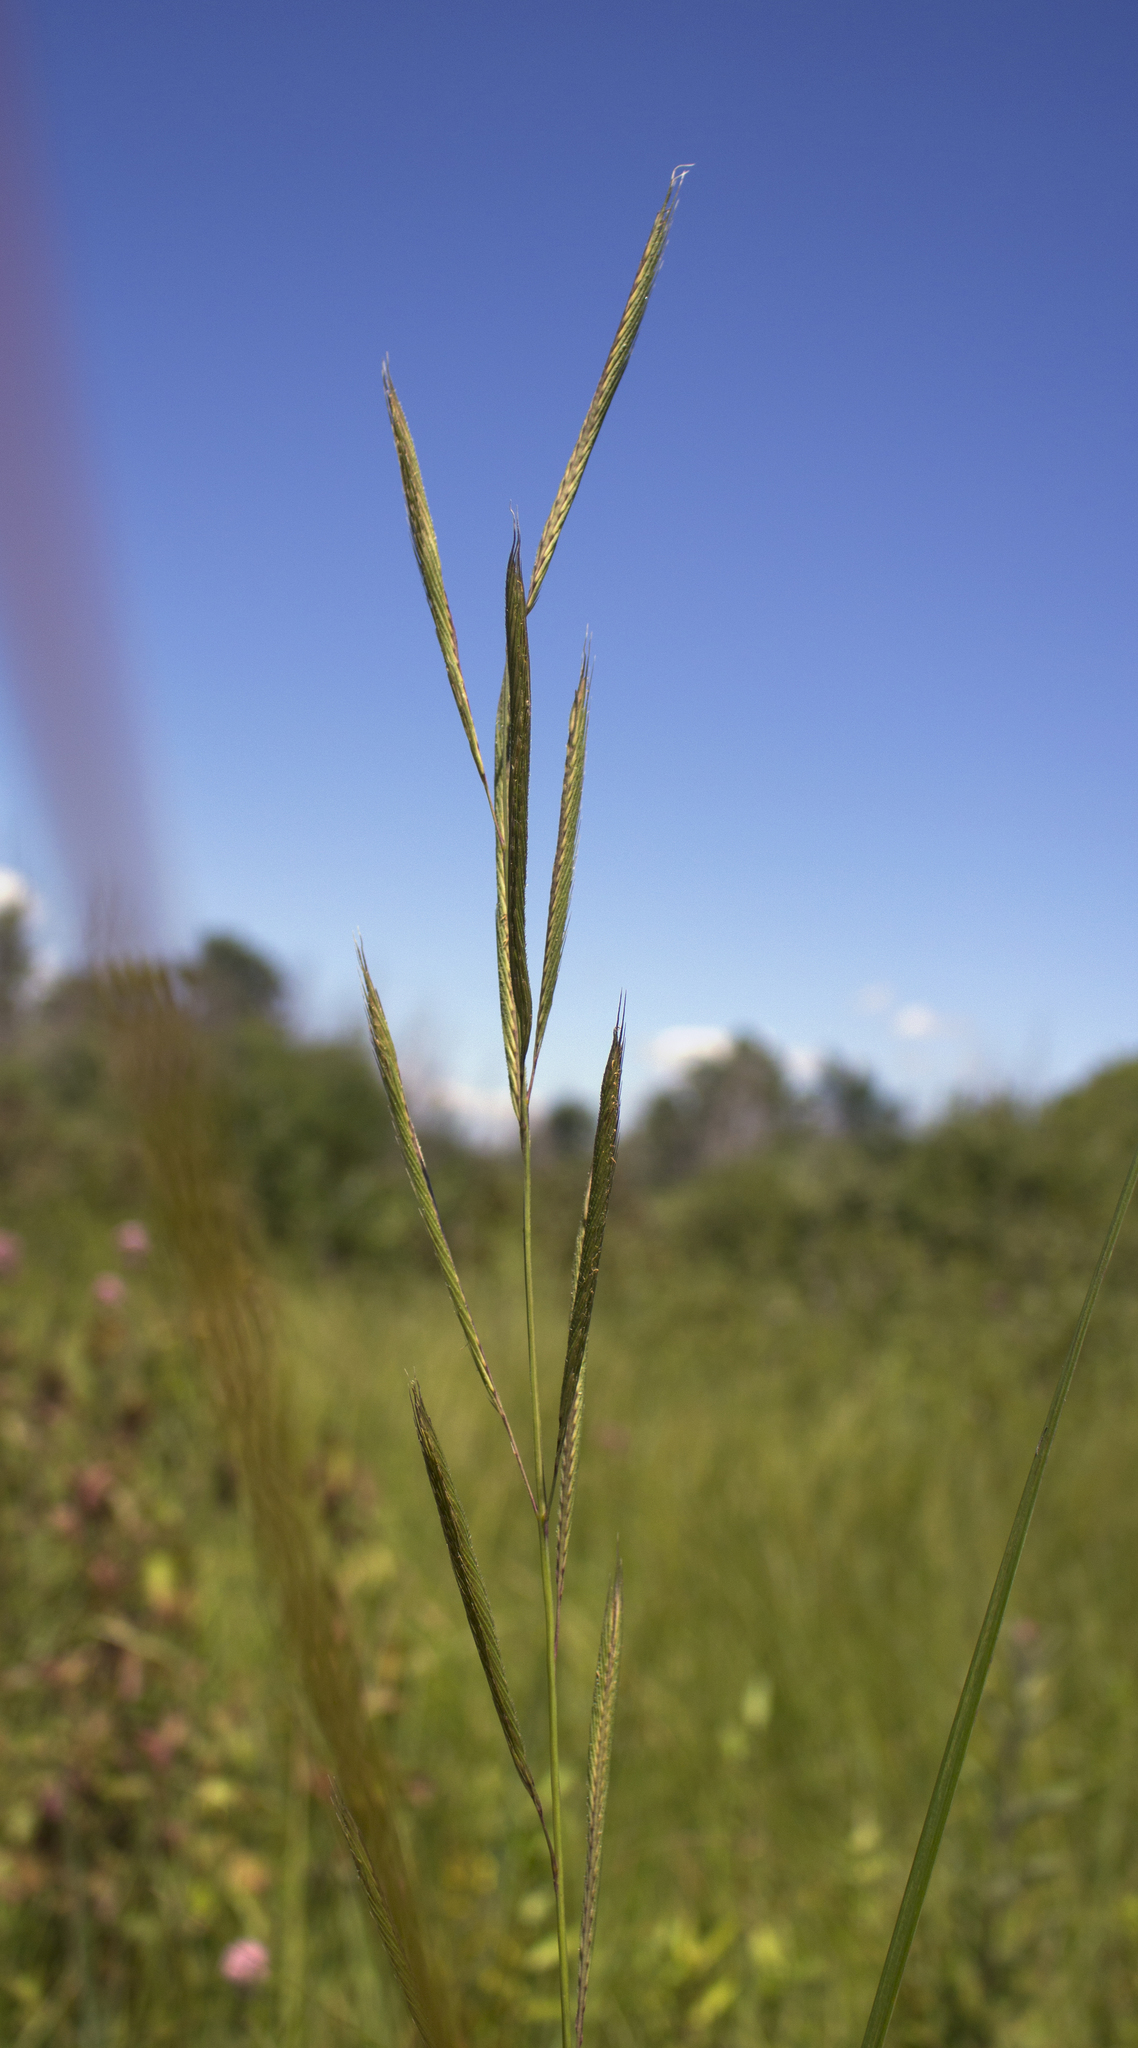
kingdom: Plantae
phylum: Tracheophyta
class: Liliopsida
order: Poales
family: Poaceae
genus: Sporobolus
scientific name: Sporobolus michauxianus
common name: Freshwater cordgrass
